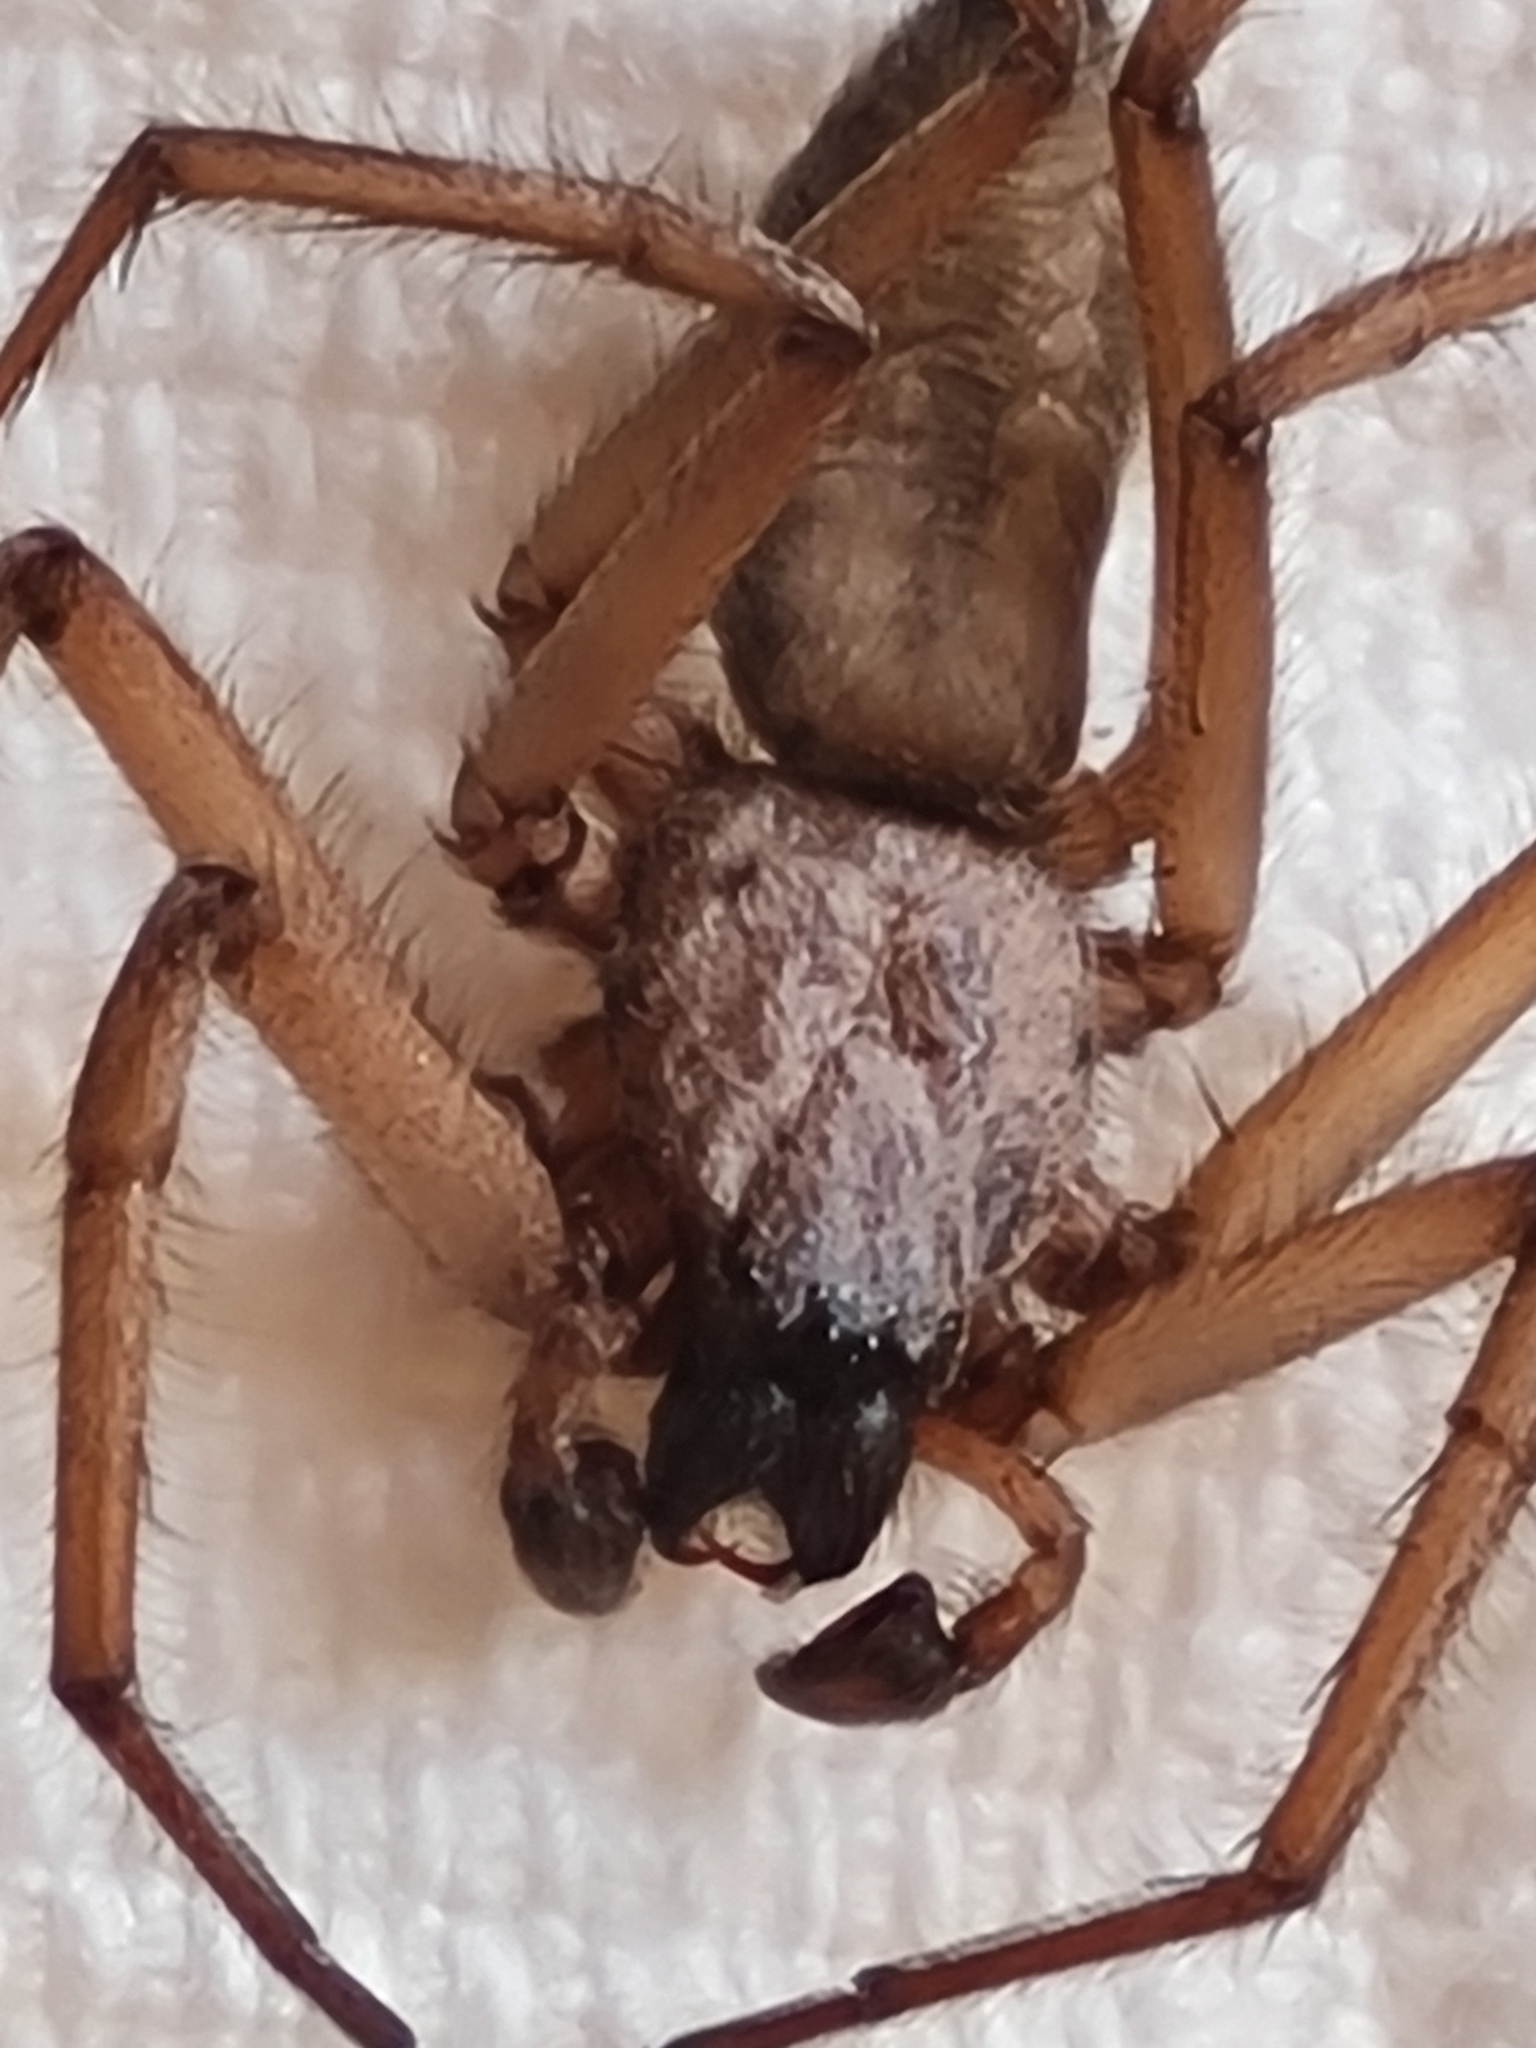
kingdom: Animalia
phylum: Arthropoda
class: Arachnida
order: Araneae
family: Trochanteriidae
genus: Hemicloea
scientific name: Hemicloea rogenhoferi
